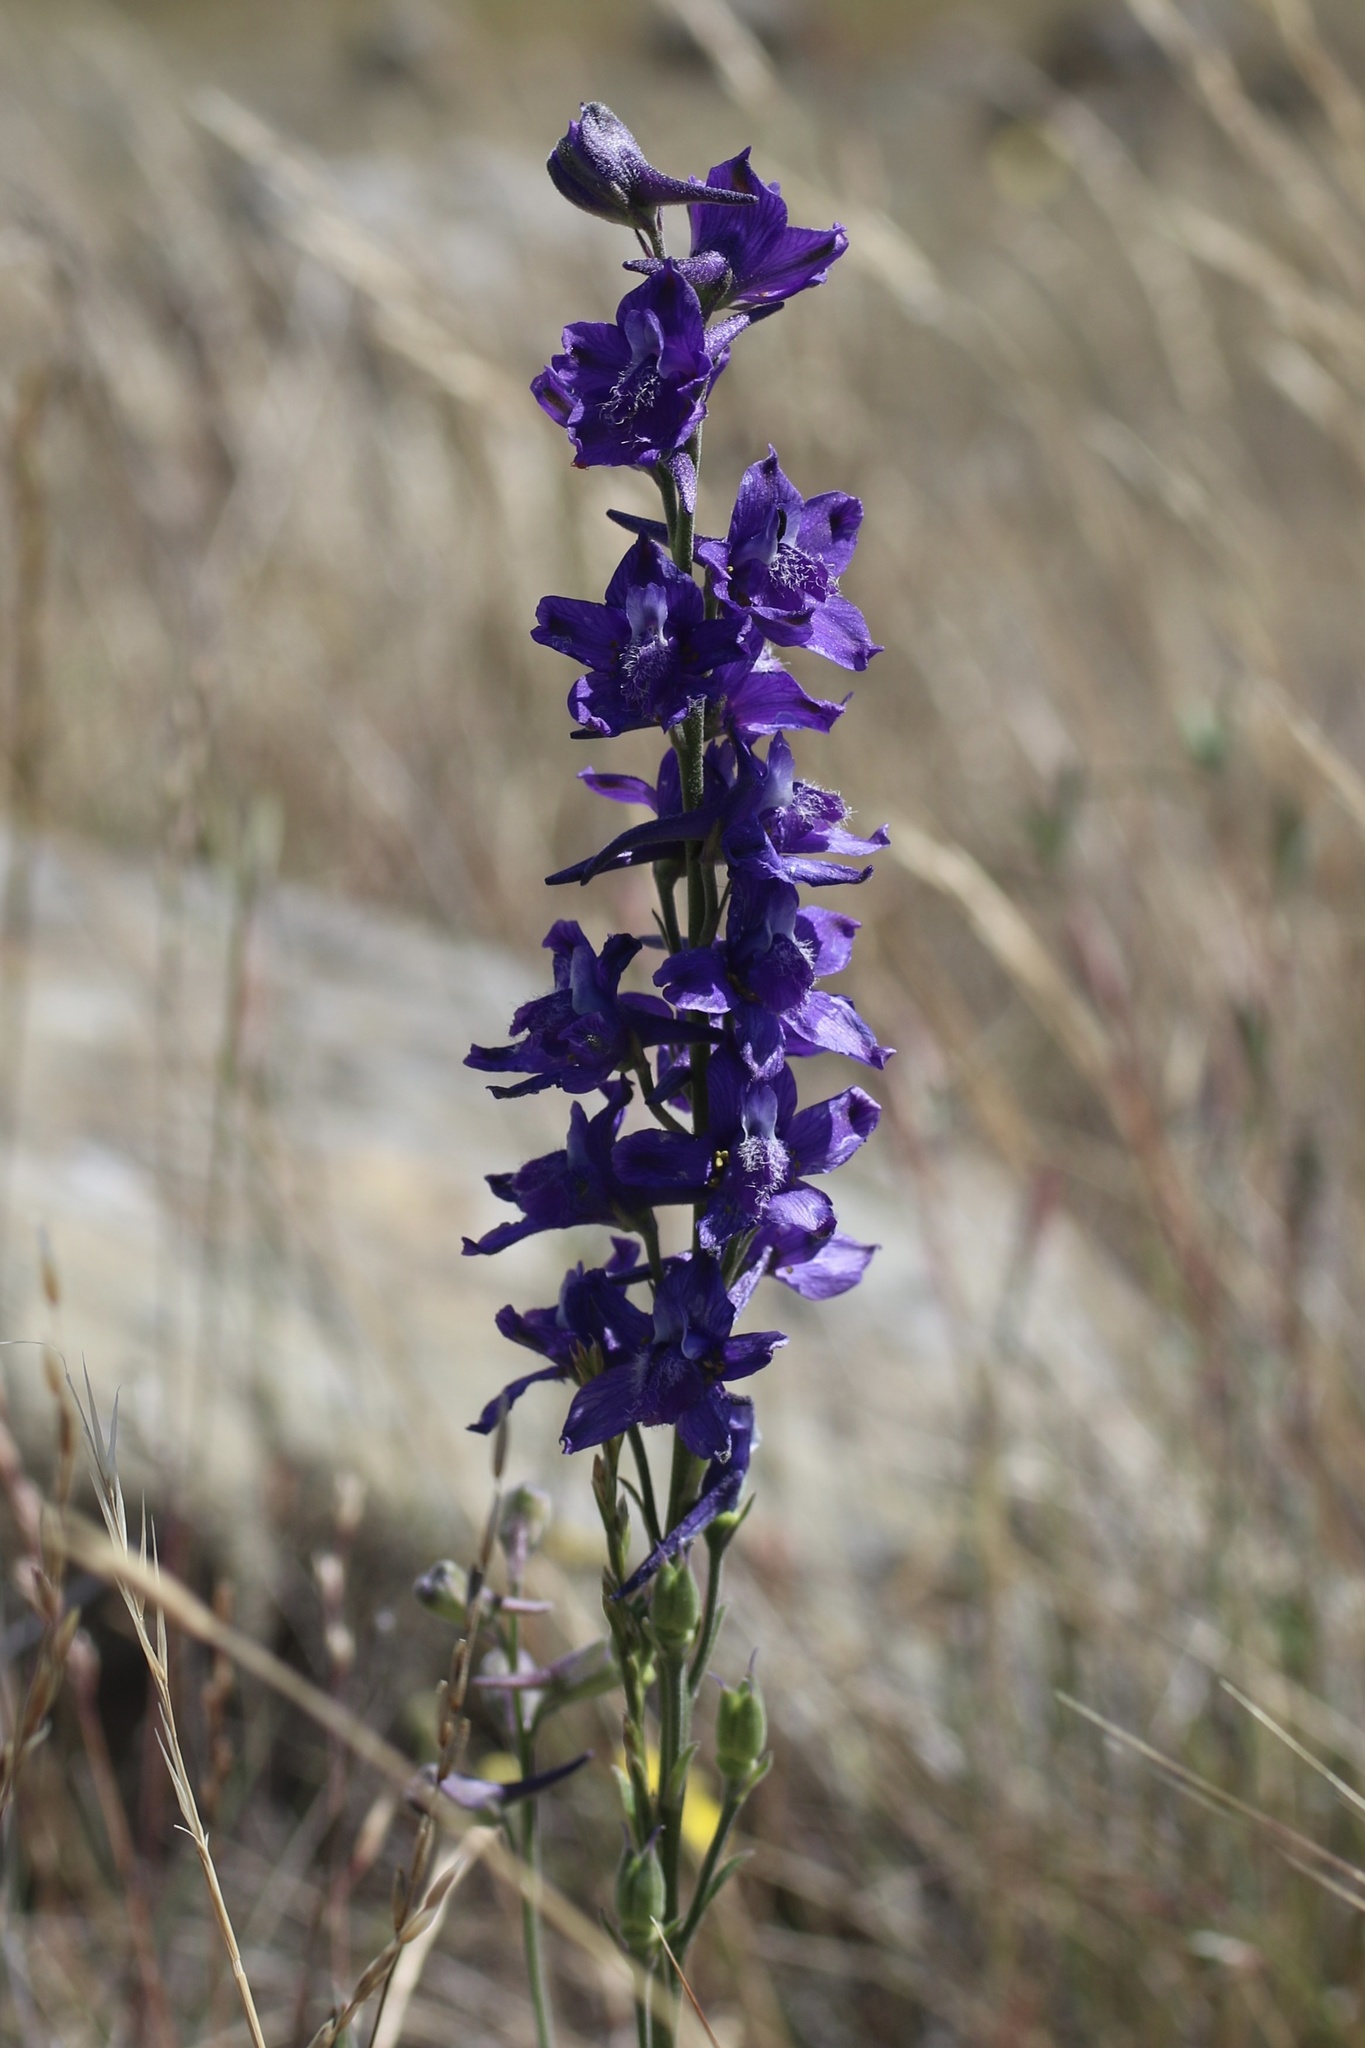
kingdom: Plantae
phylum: Tracheophyta
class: Magnoliopsida
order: Ranunculales
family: Ranunculaceae
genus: Delphinium
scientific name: Delphinium hesperium
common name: Western larkspur
